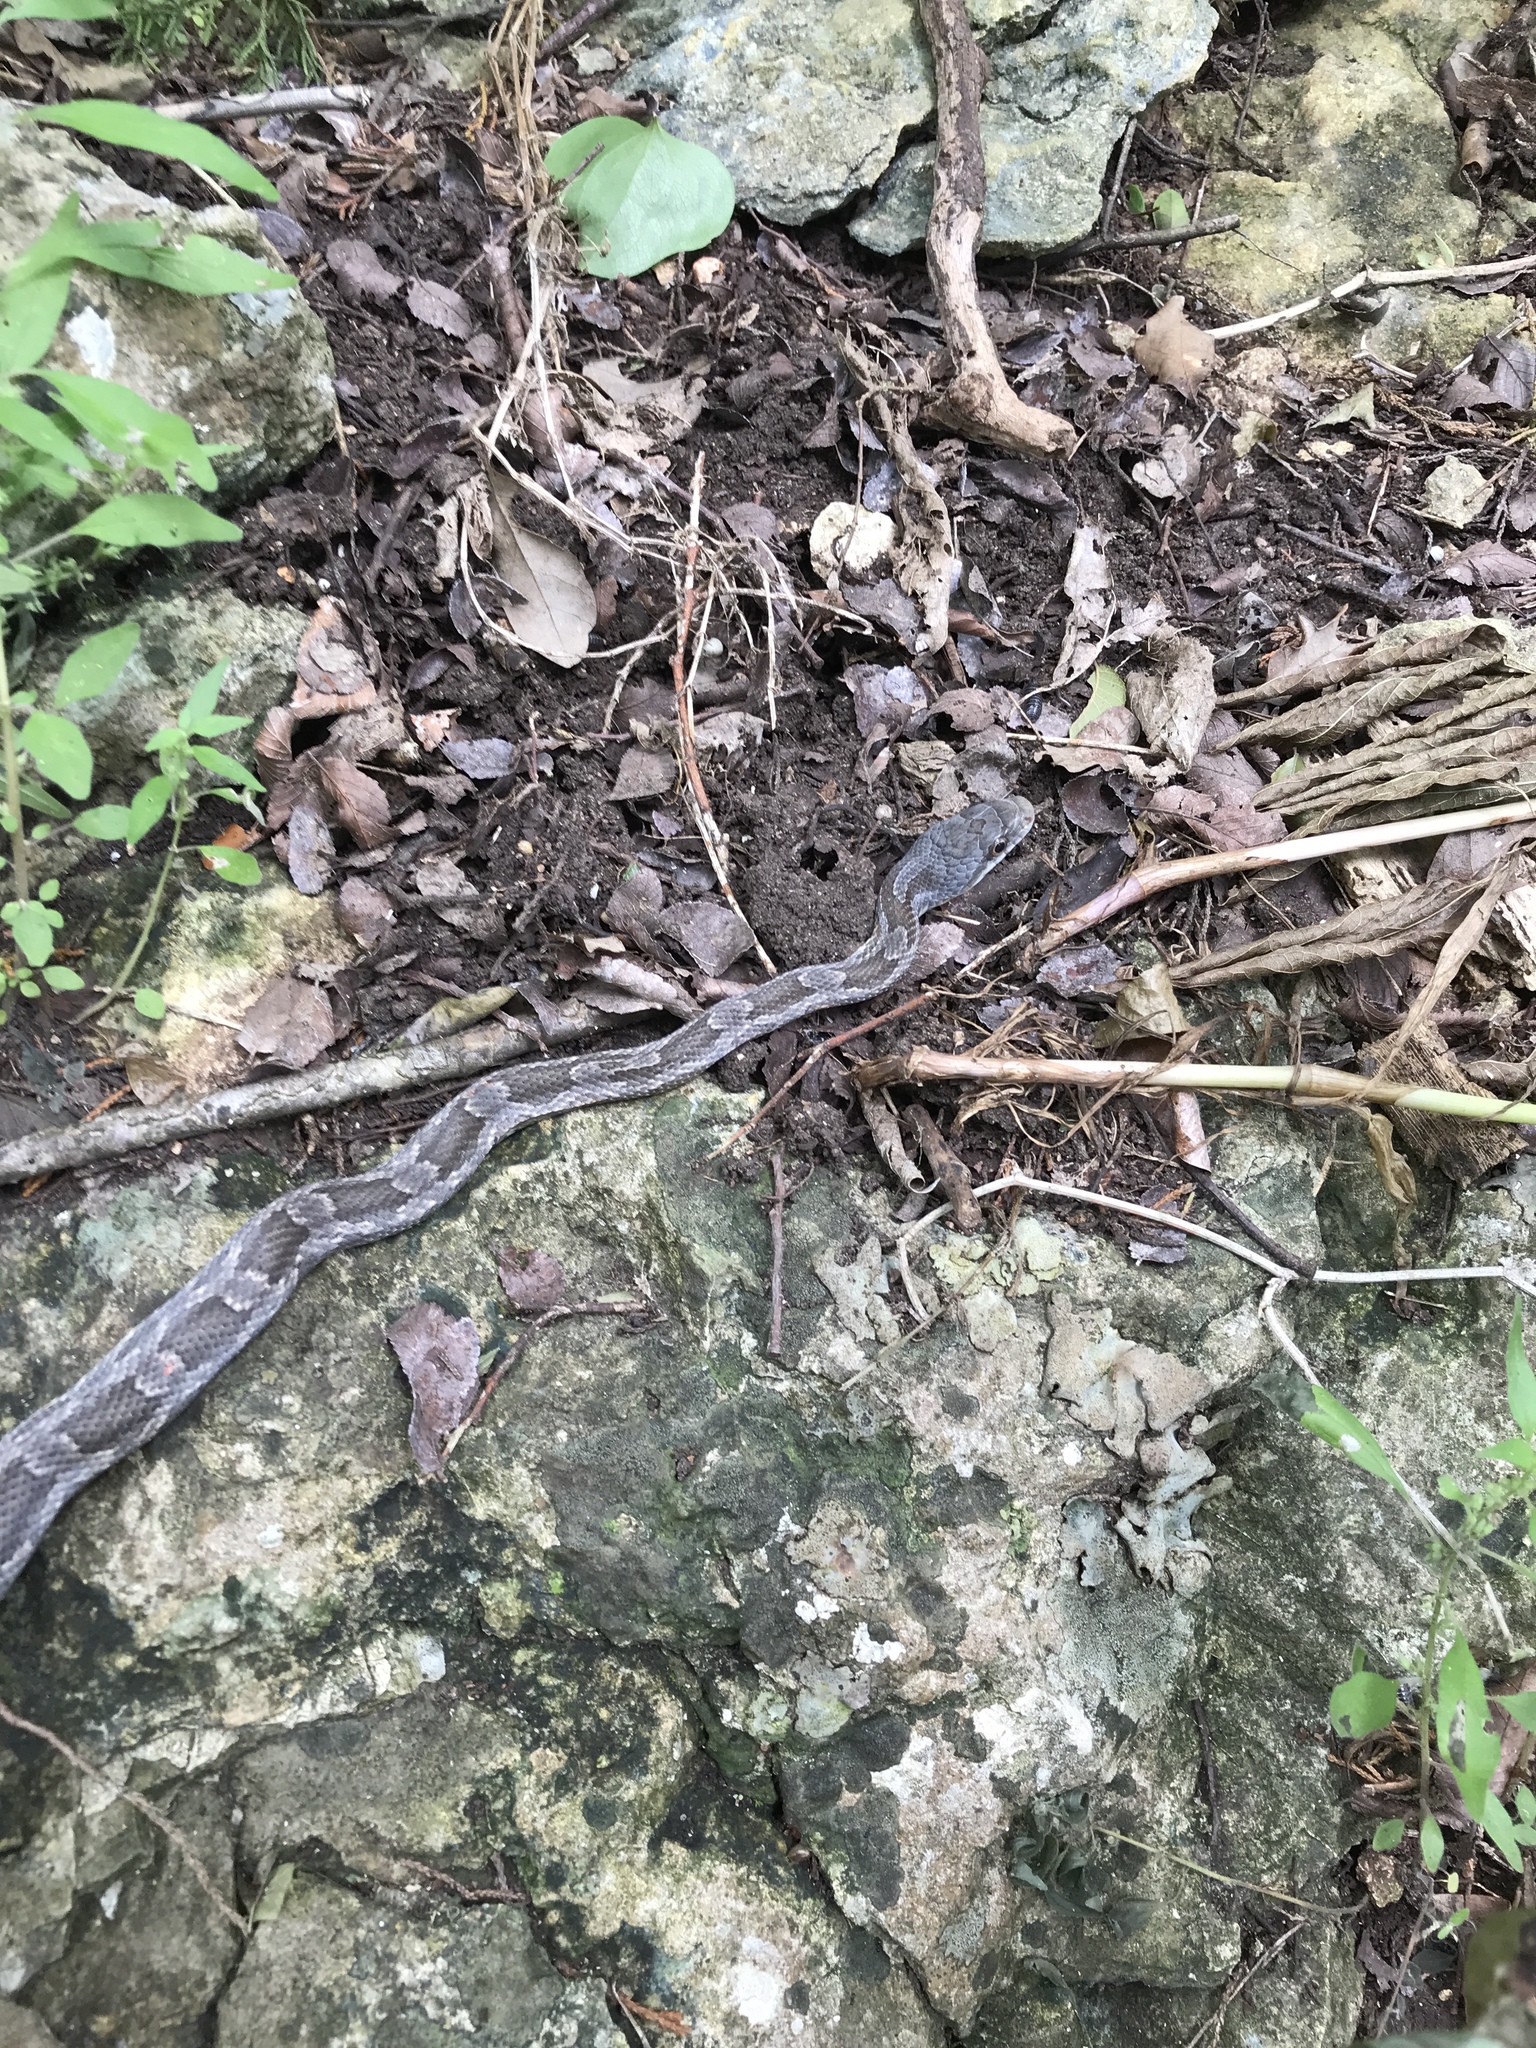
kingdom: Animalia
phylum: Chordata
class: Squamata
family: Colubridae
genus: Pantherophis
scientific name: Pantherophis obsoletus
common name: Black rat snake
